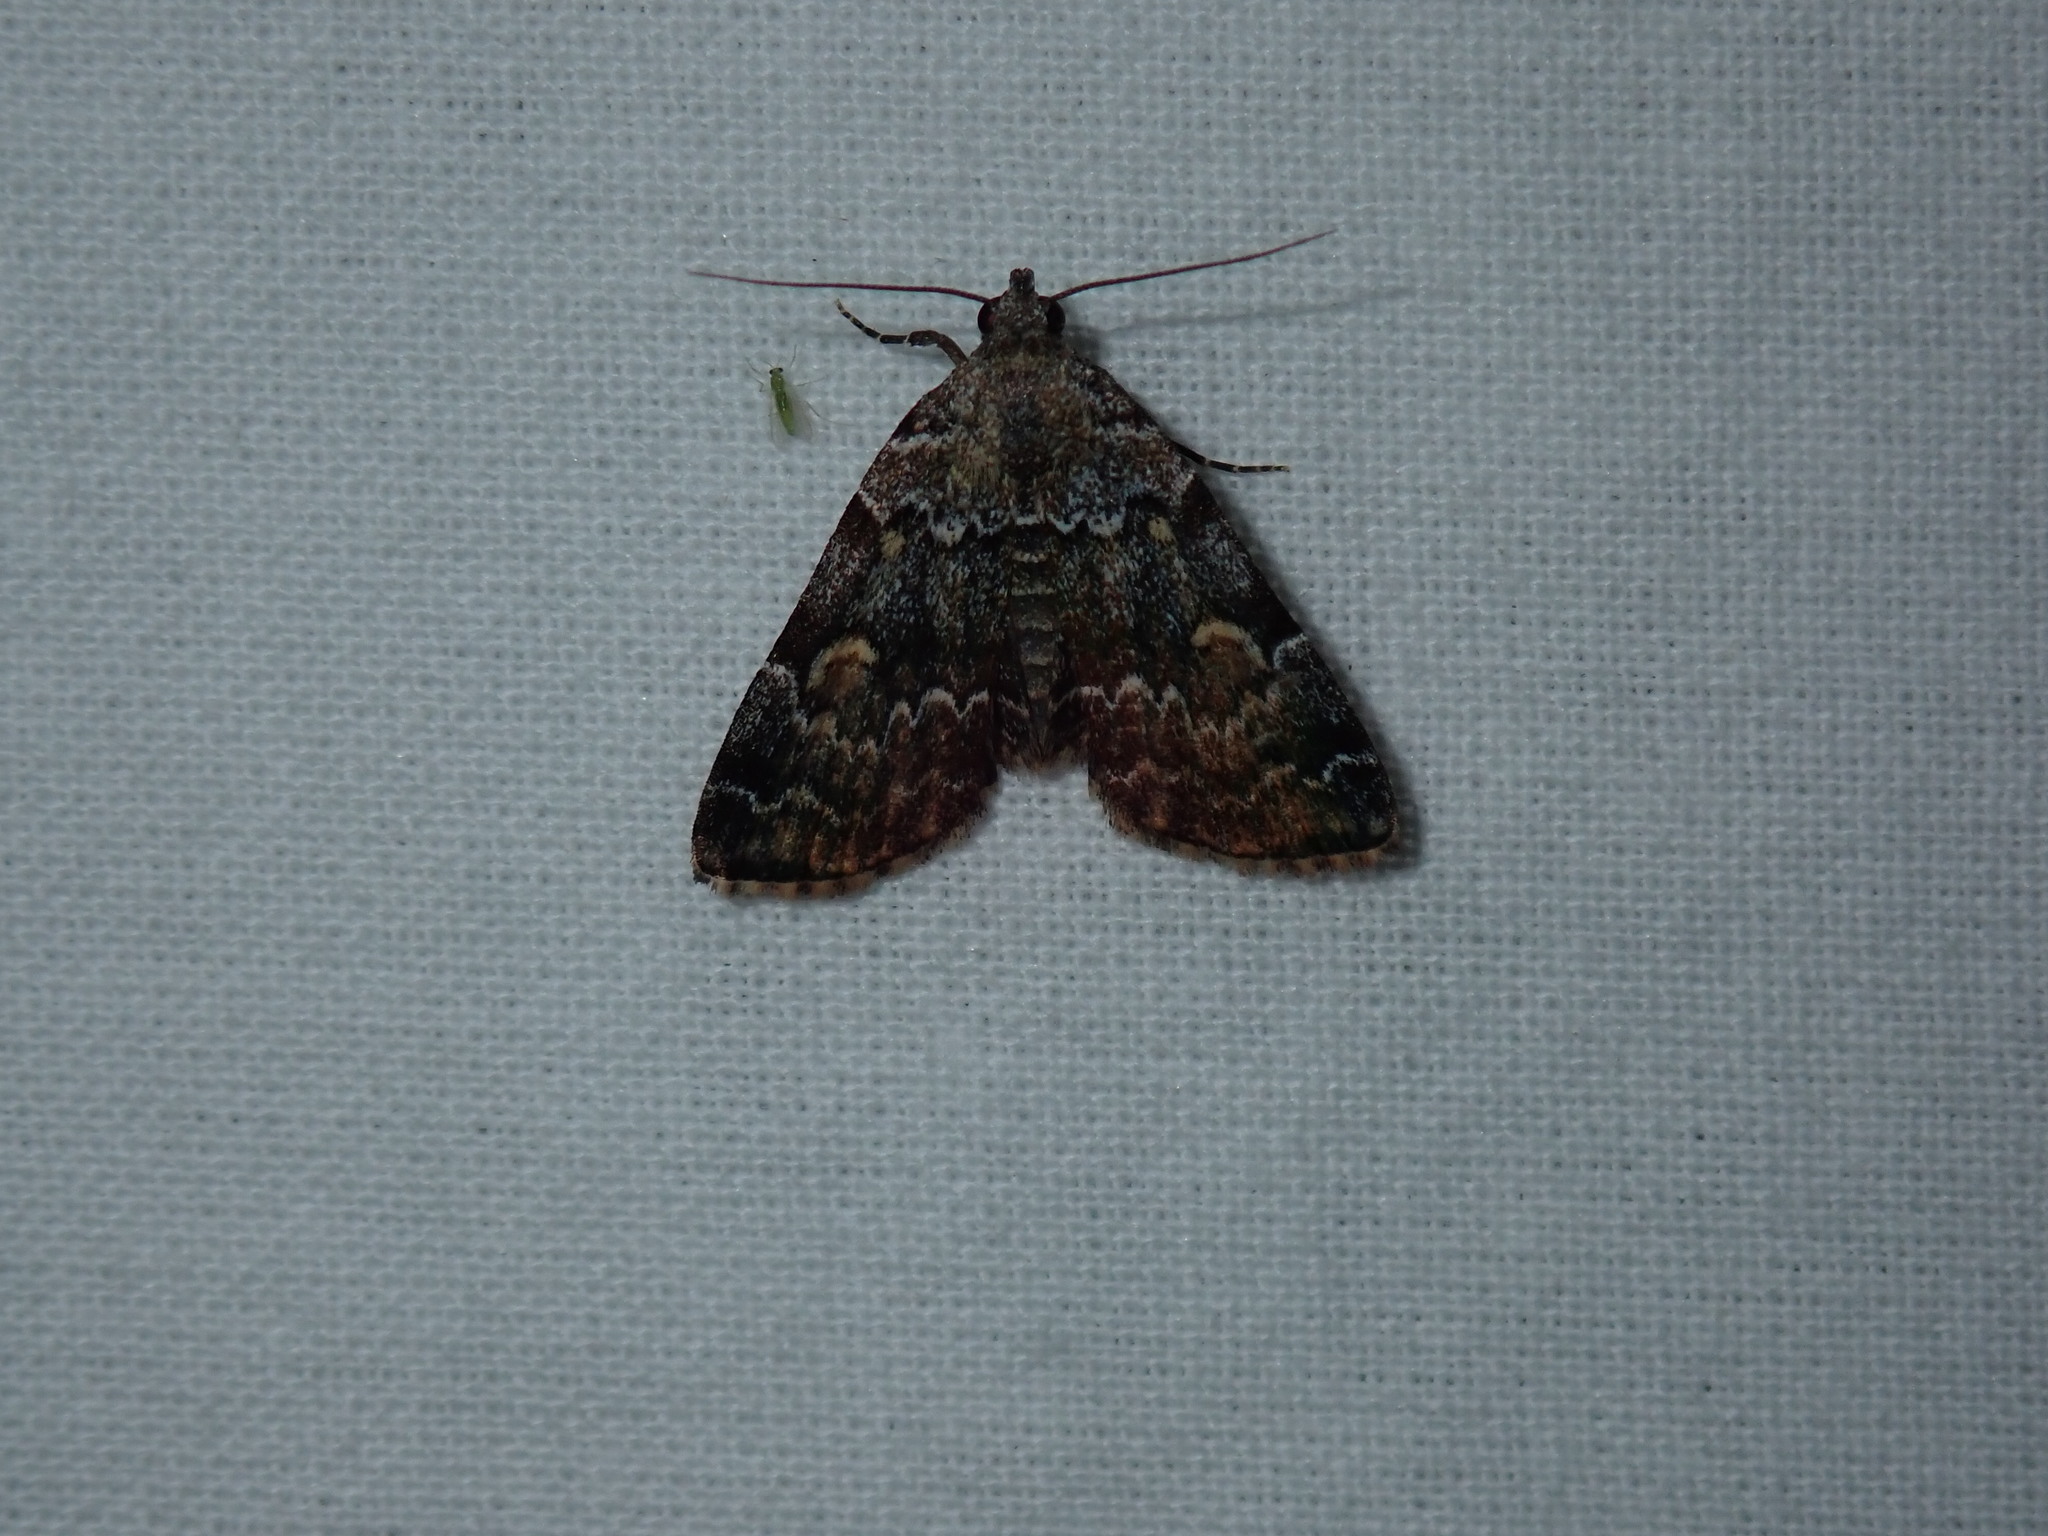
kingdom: Animalia
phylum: Arthropoda
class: Insecta
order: Lepidoptera
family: Erebidae
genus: Idia
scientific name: Idia americalis
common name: American idia moth
